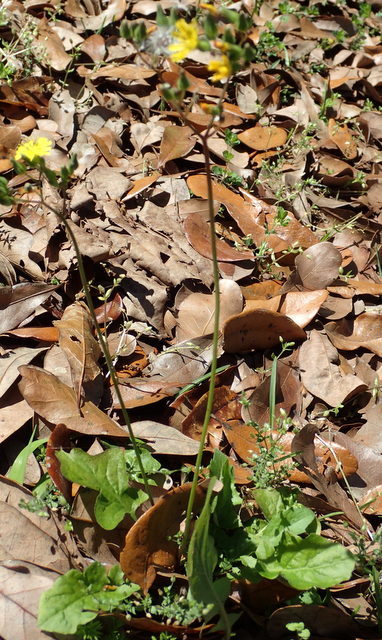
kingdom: Plantae
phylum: Tracheophyta
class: Magnoliopsida
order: Asterales
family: Asteraceae
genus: Youngia
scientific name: Youngia japonica
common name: Oriental false hawksbeard
